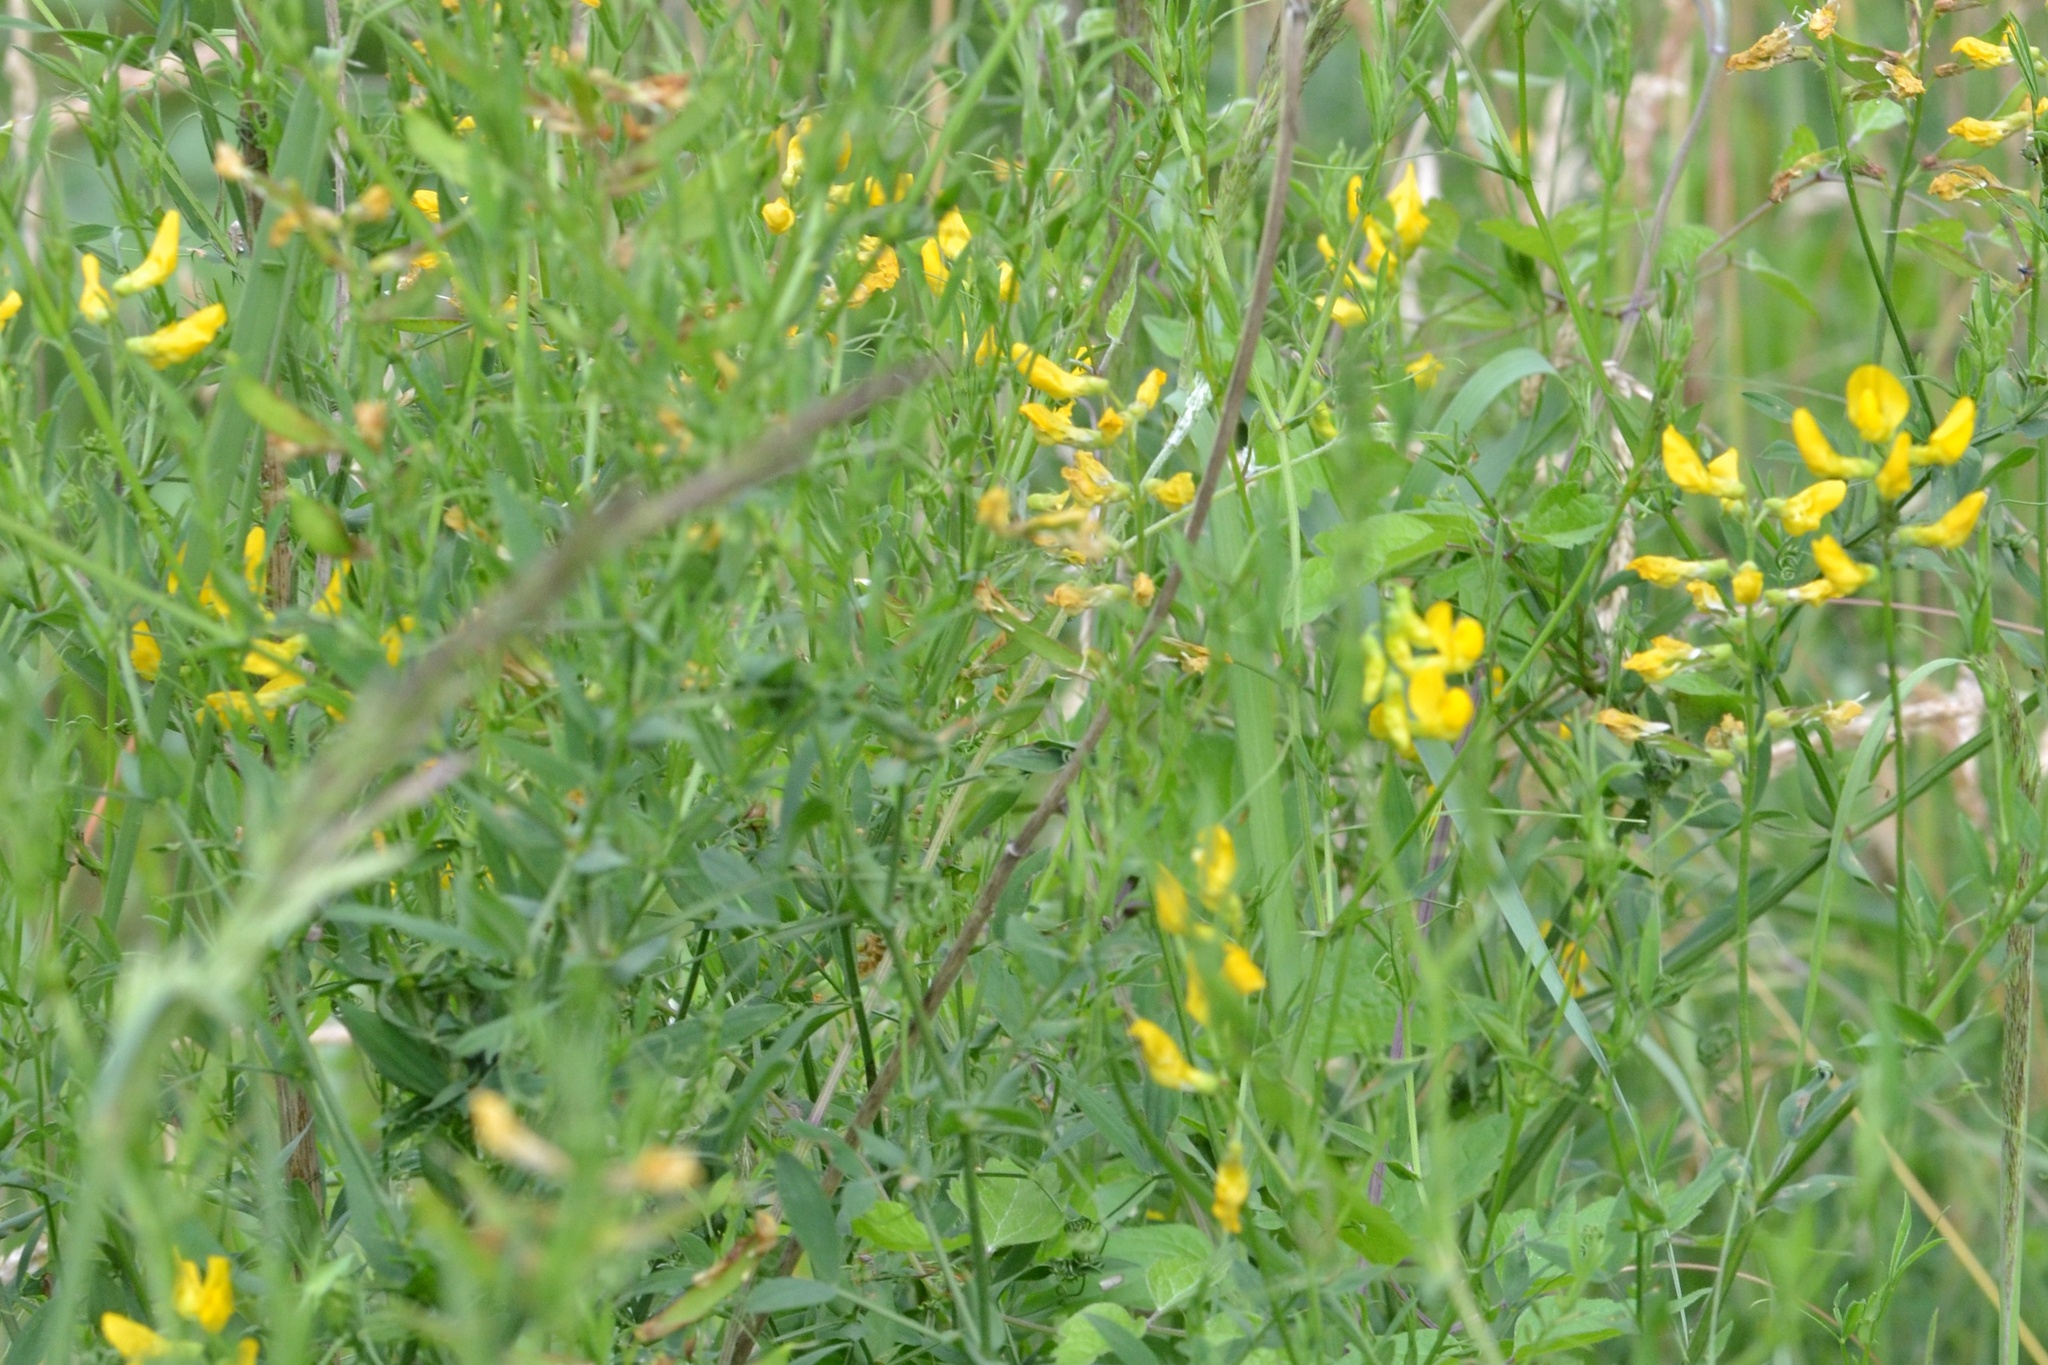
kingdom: Plantae
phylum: Tracheophyta
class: Magnoliopsida
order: Fabales
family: Fabaceae
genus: Lathyrus
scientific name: Lathyrus pratensis
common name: Meadow vetchling
